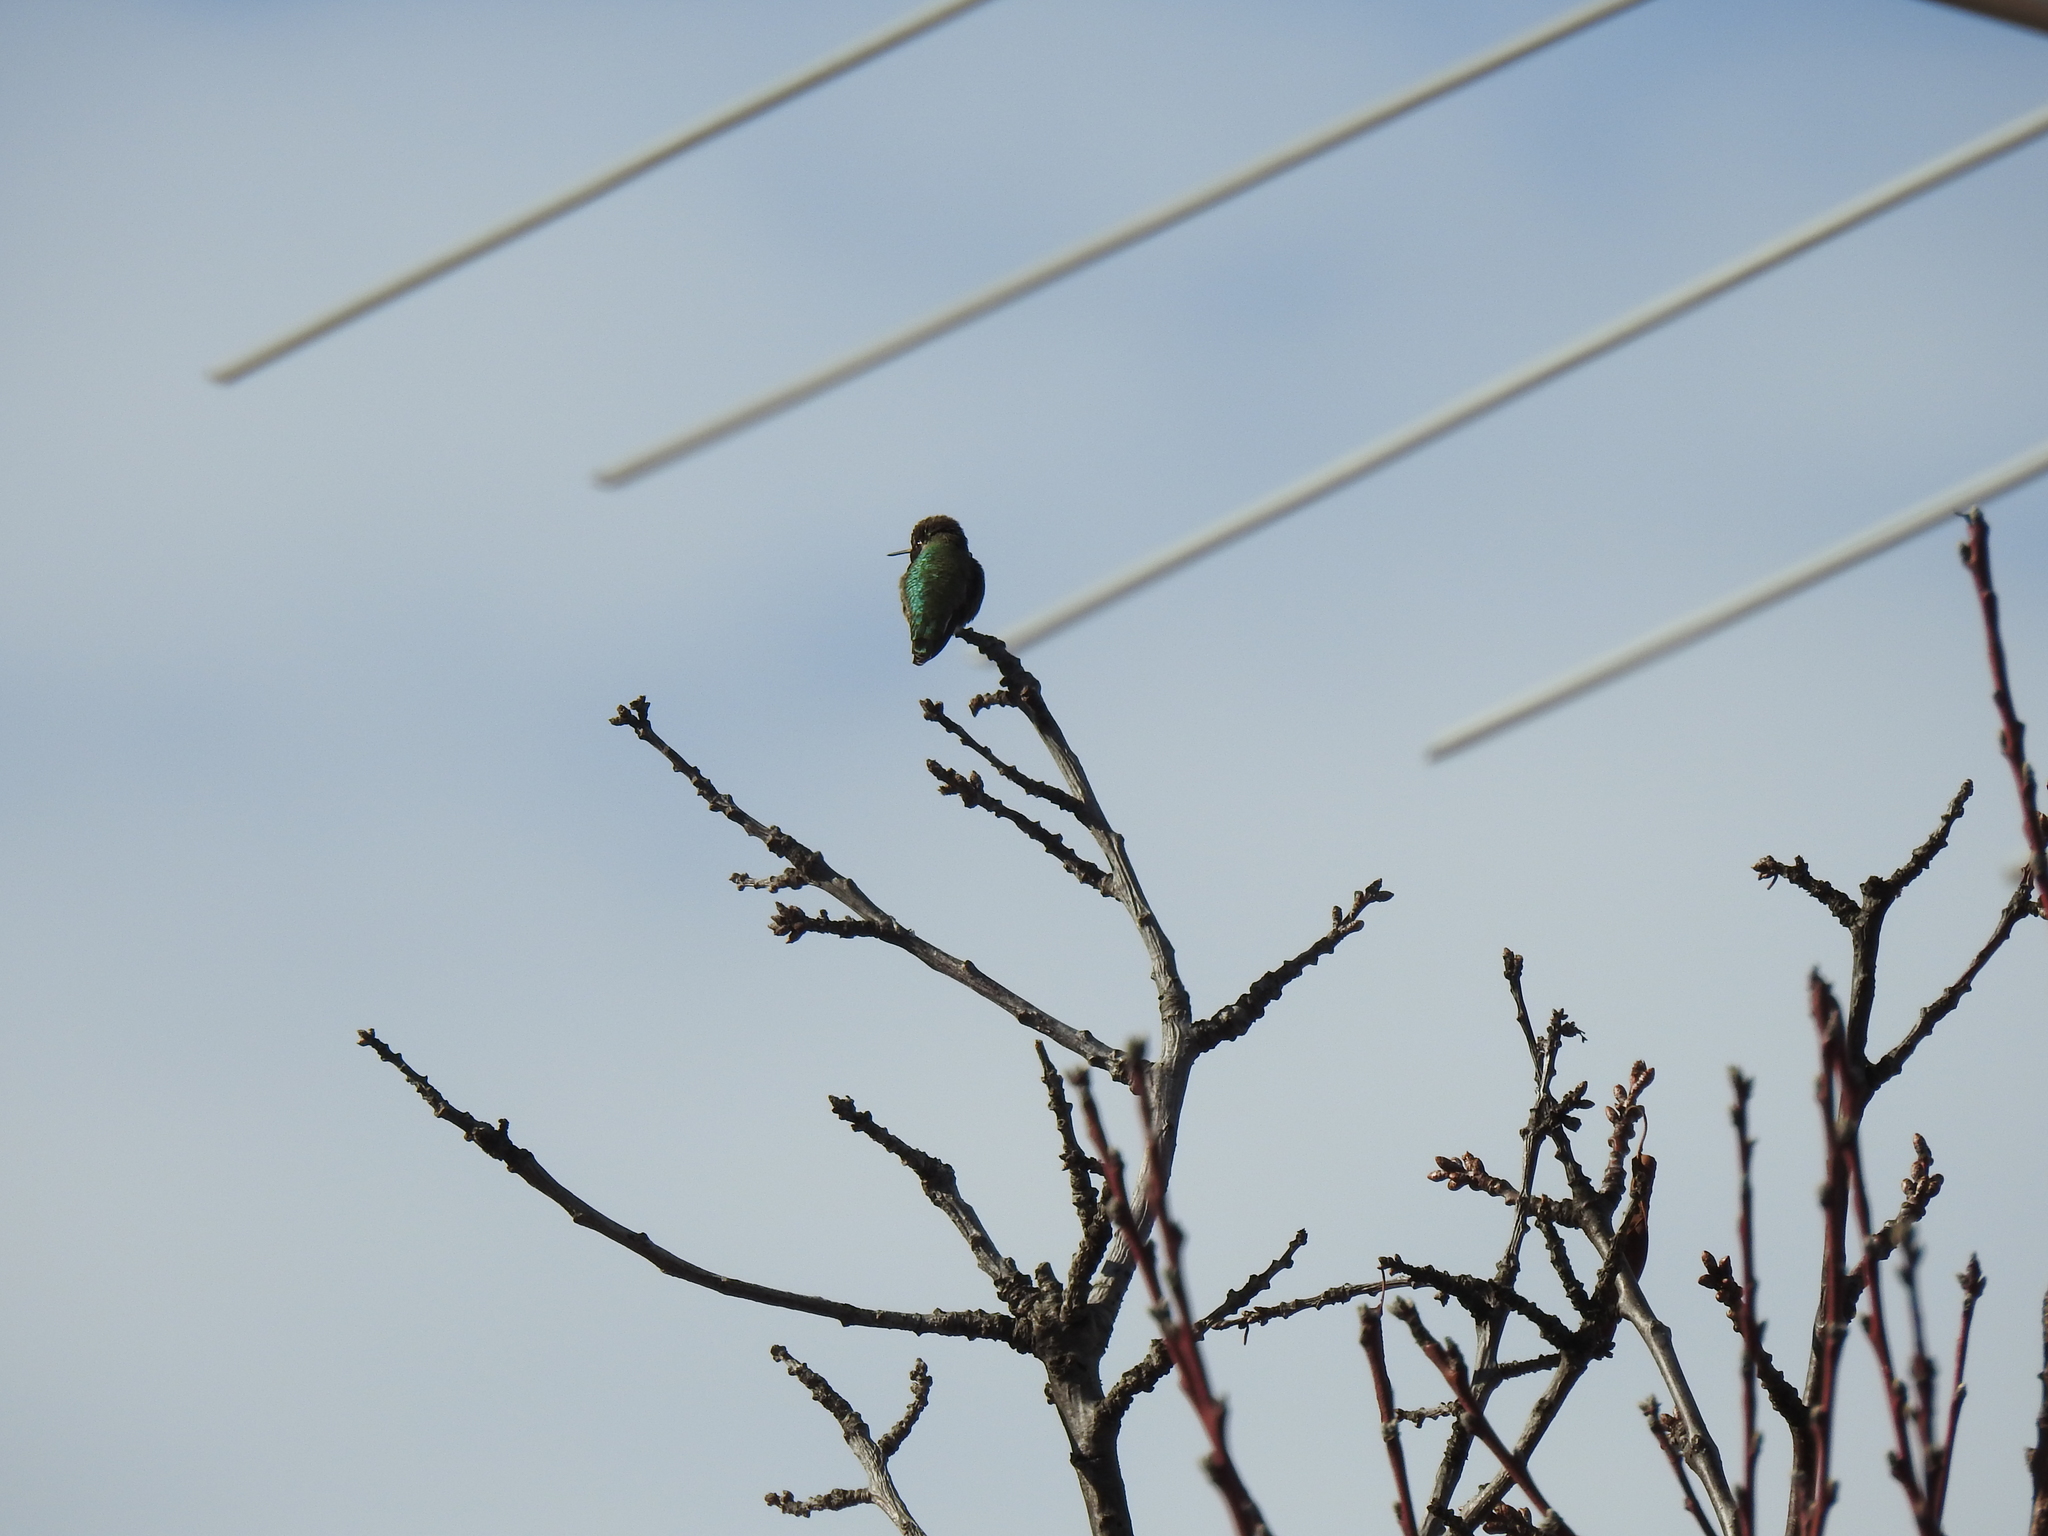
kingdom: Animalia
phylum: Chordata
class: Aves
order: Apodiformes
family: Trochilidae
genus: Calypte
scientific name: Calypte anna
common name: Anna's hummingbird
